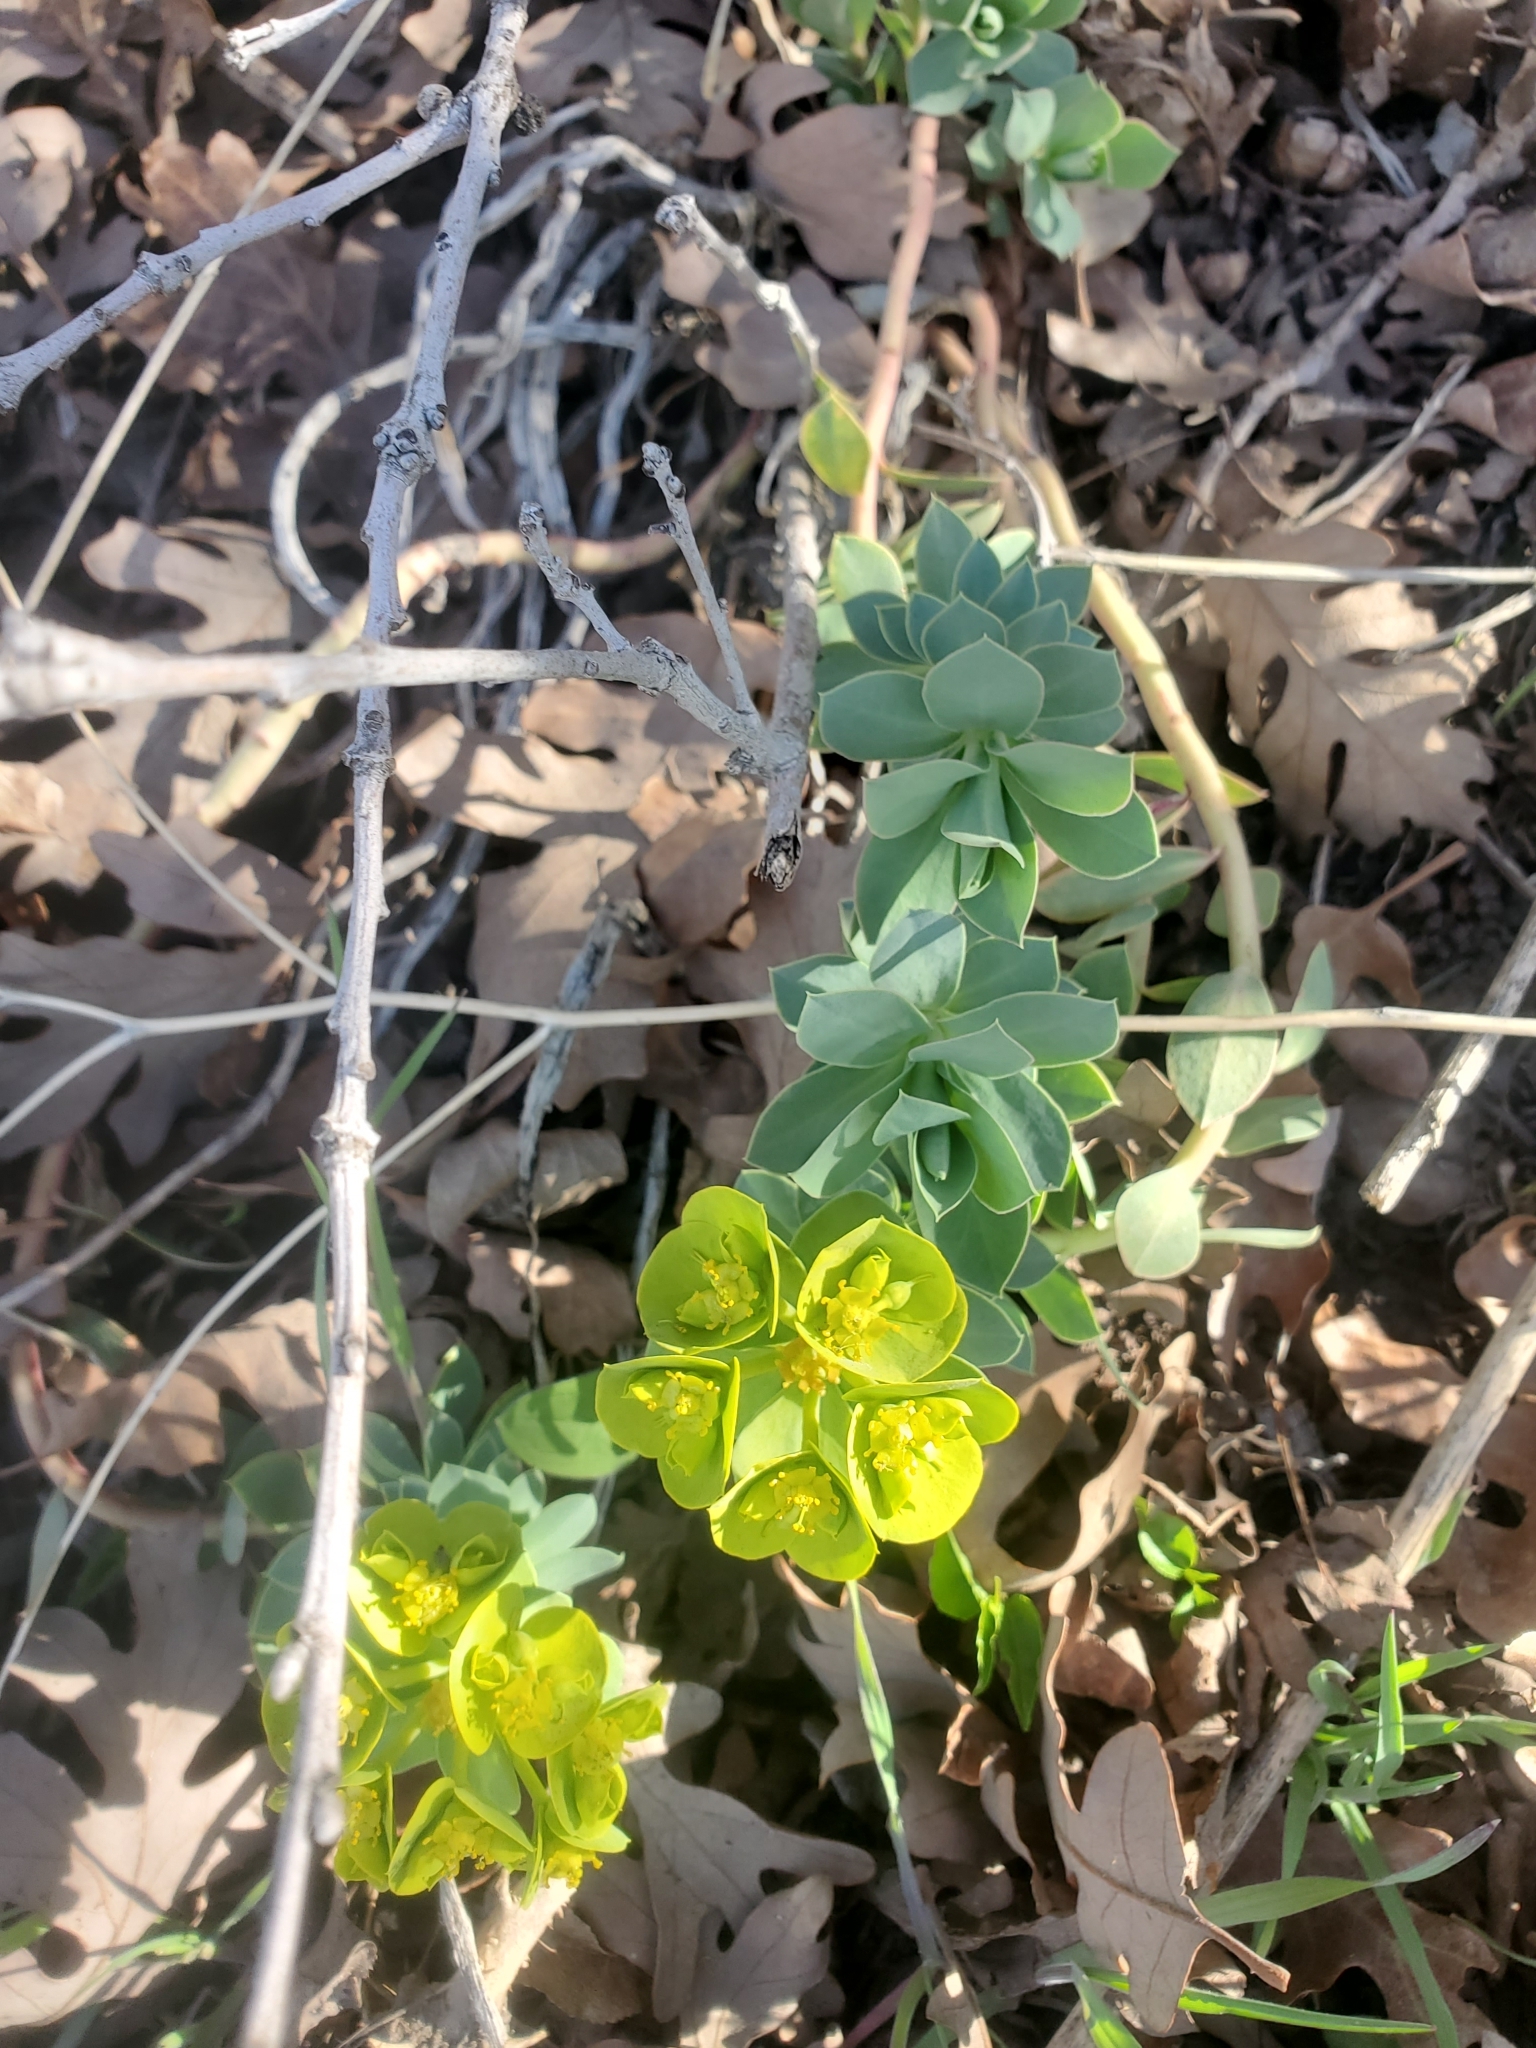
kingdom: Plantae
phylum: Tracheophyta
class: Magnoliopsida
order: Malpighiales
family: Euphorbiaceae
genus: Euphorbia
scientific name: Euphorbia myrsinites
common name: Myrtle spurge
